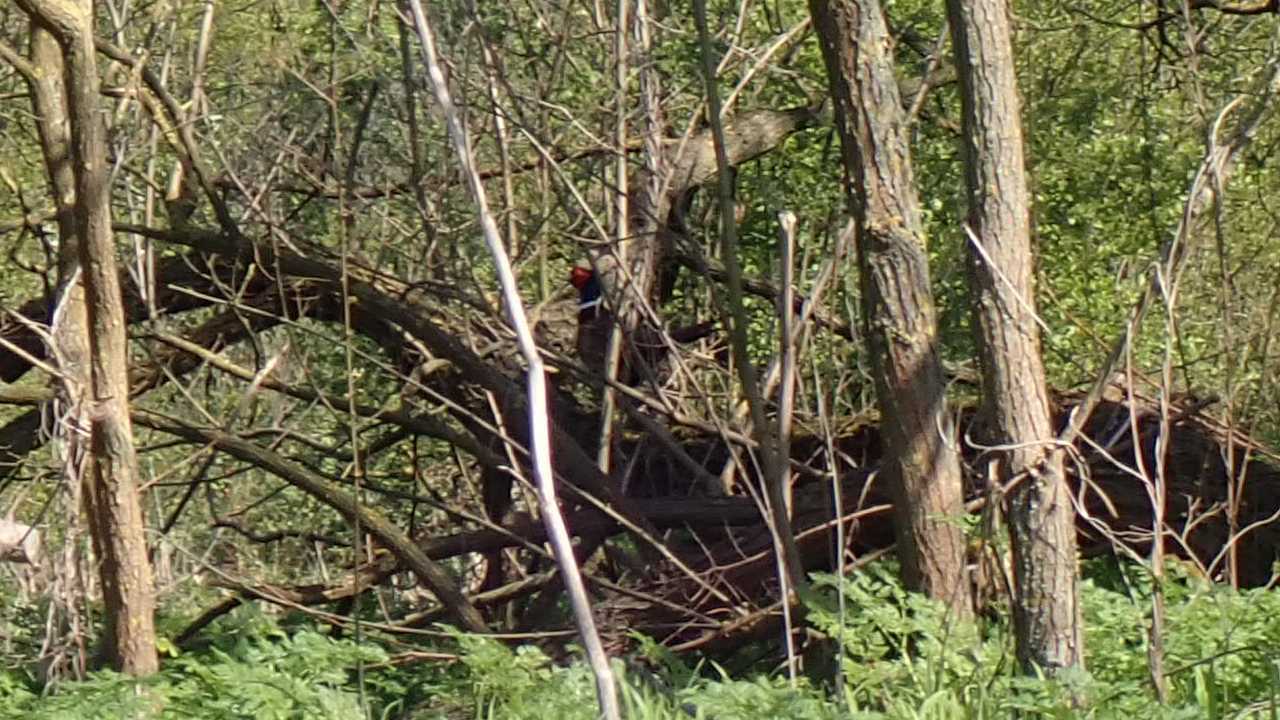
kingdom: Animalia
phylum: Chordata
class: Aves
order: Galliformes
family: Phasianidae
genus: Phasianus
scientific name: Phasianus colchicus
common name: Common pheasant
